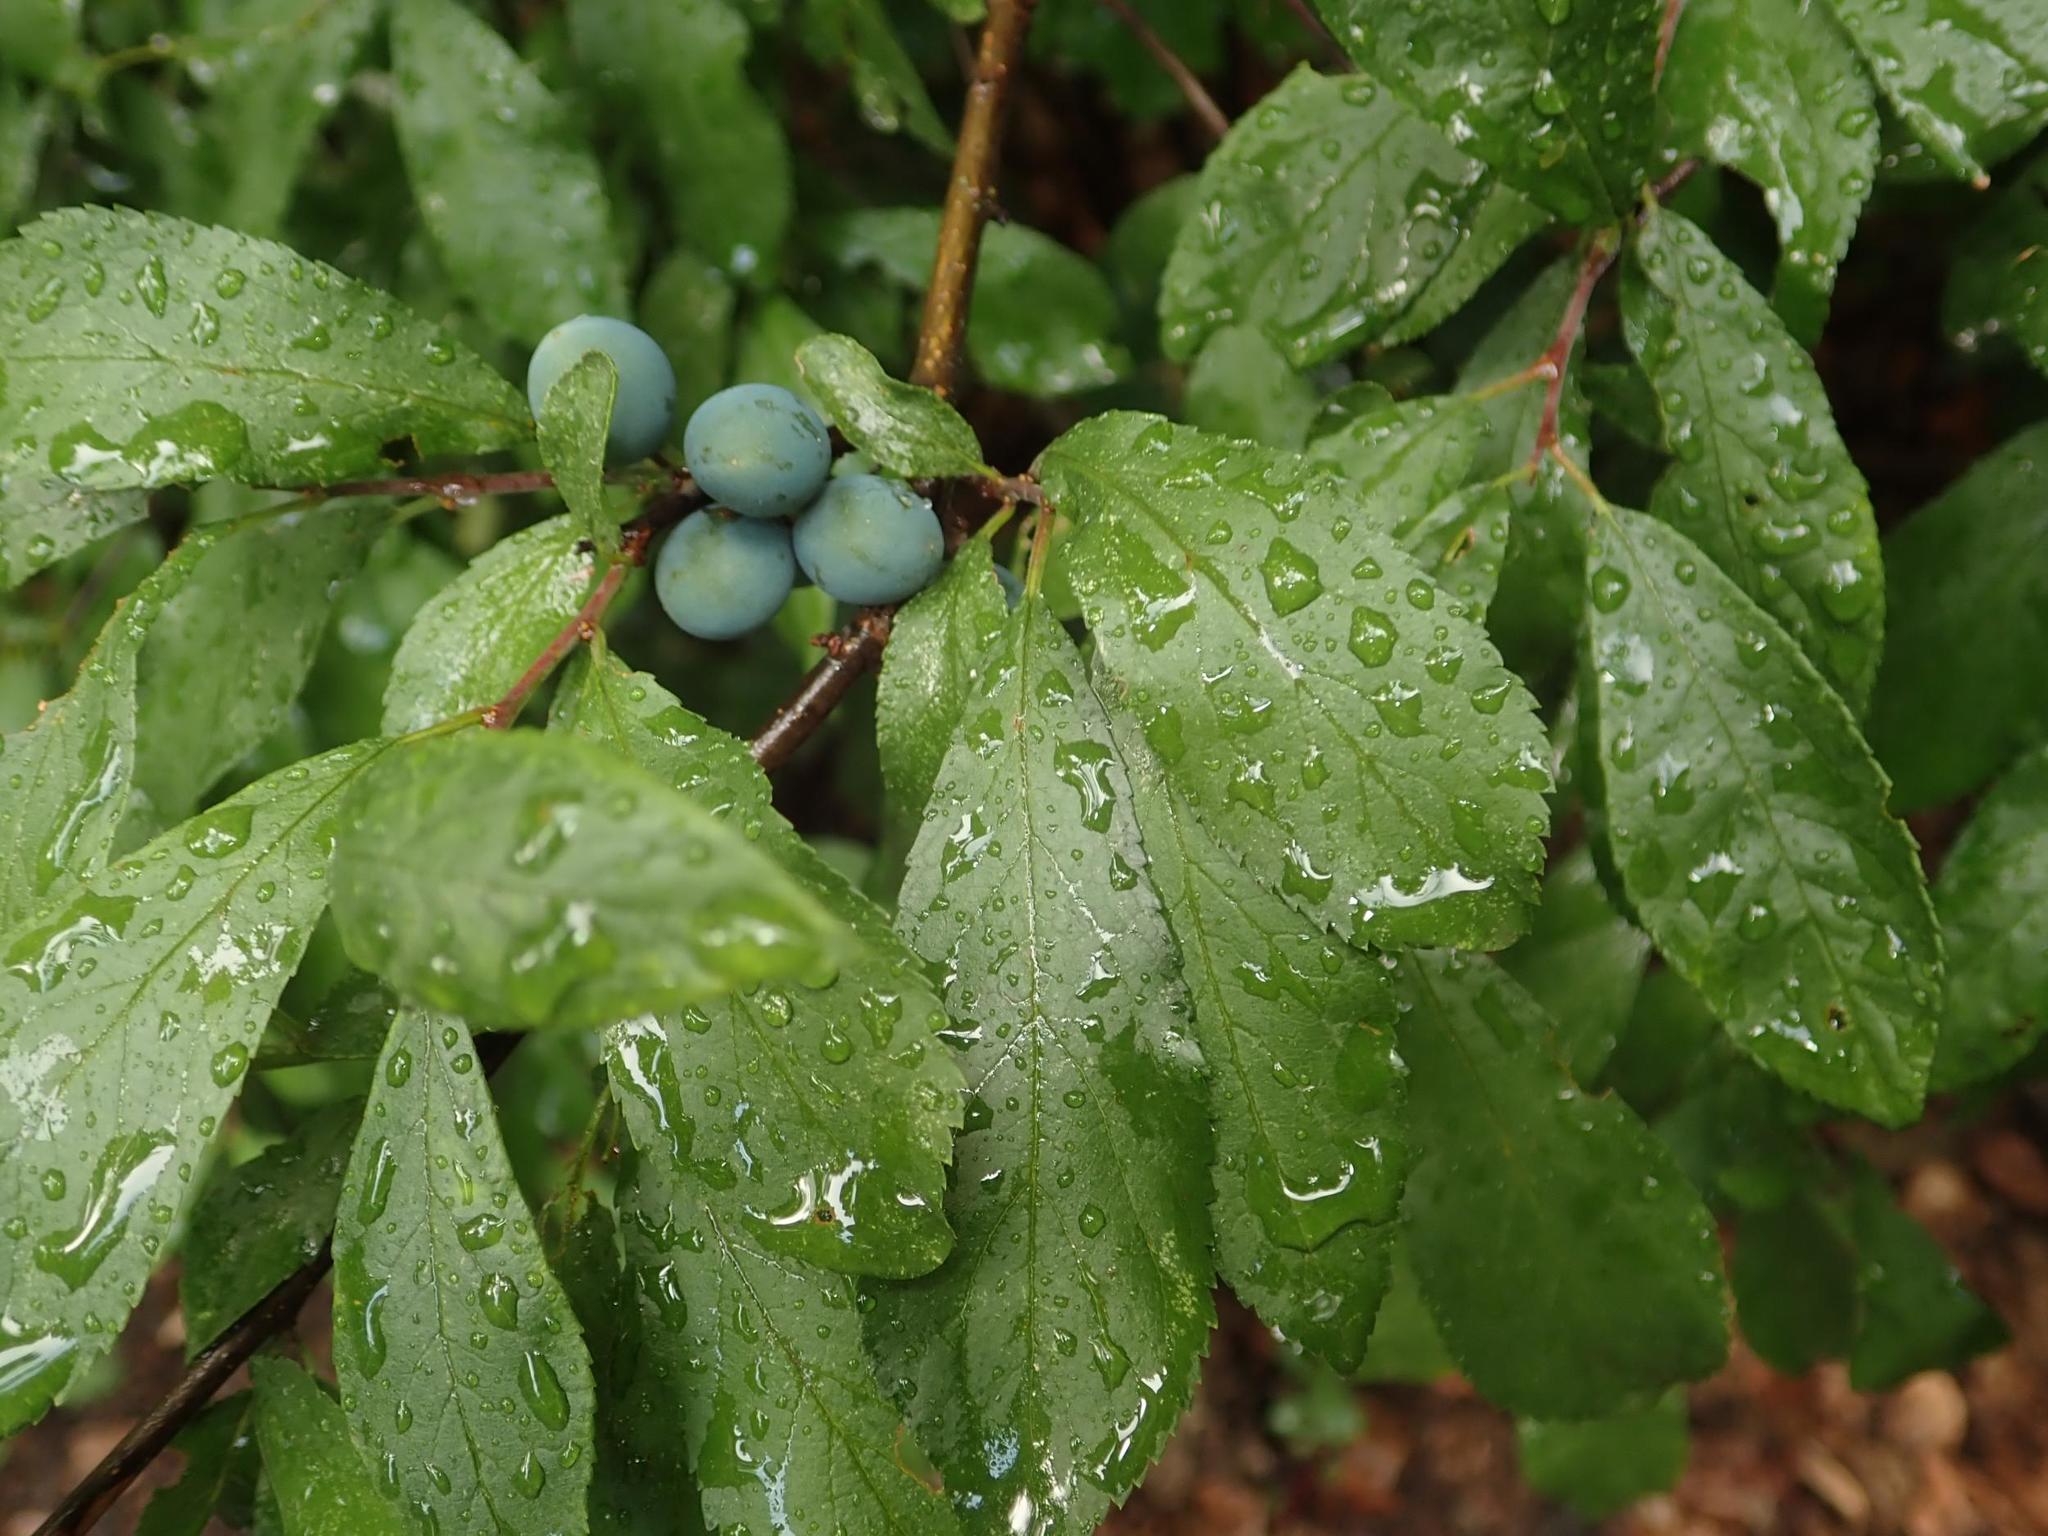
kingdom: Plantae
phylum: Tracheophyta
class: Magnoliopsida
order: Rosales
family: Rosaceae
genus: Prunus
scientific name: Prunus spinosa
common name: Blackthorn
